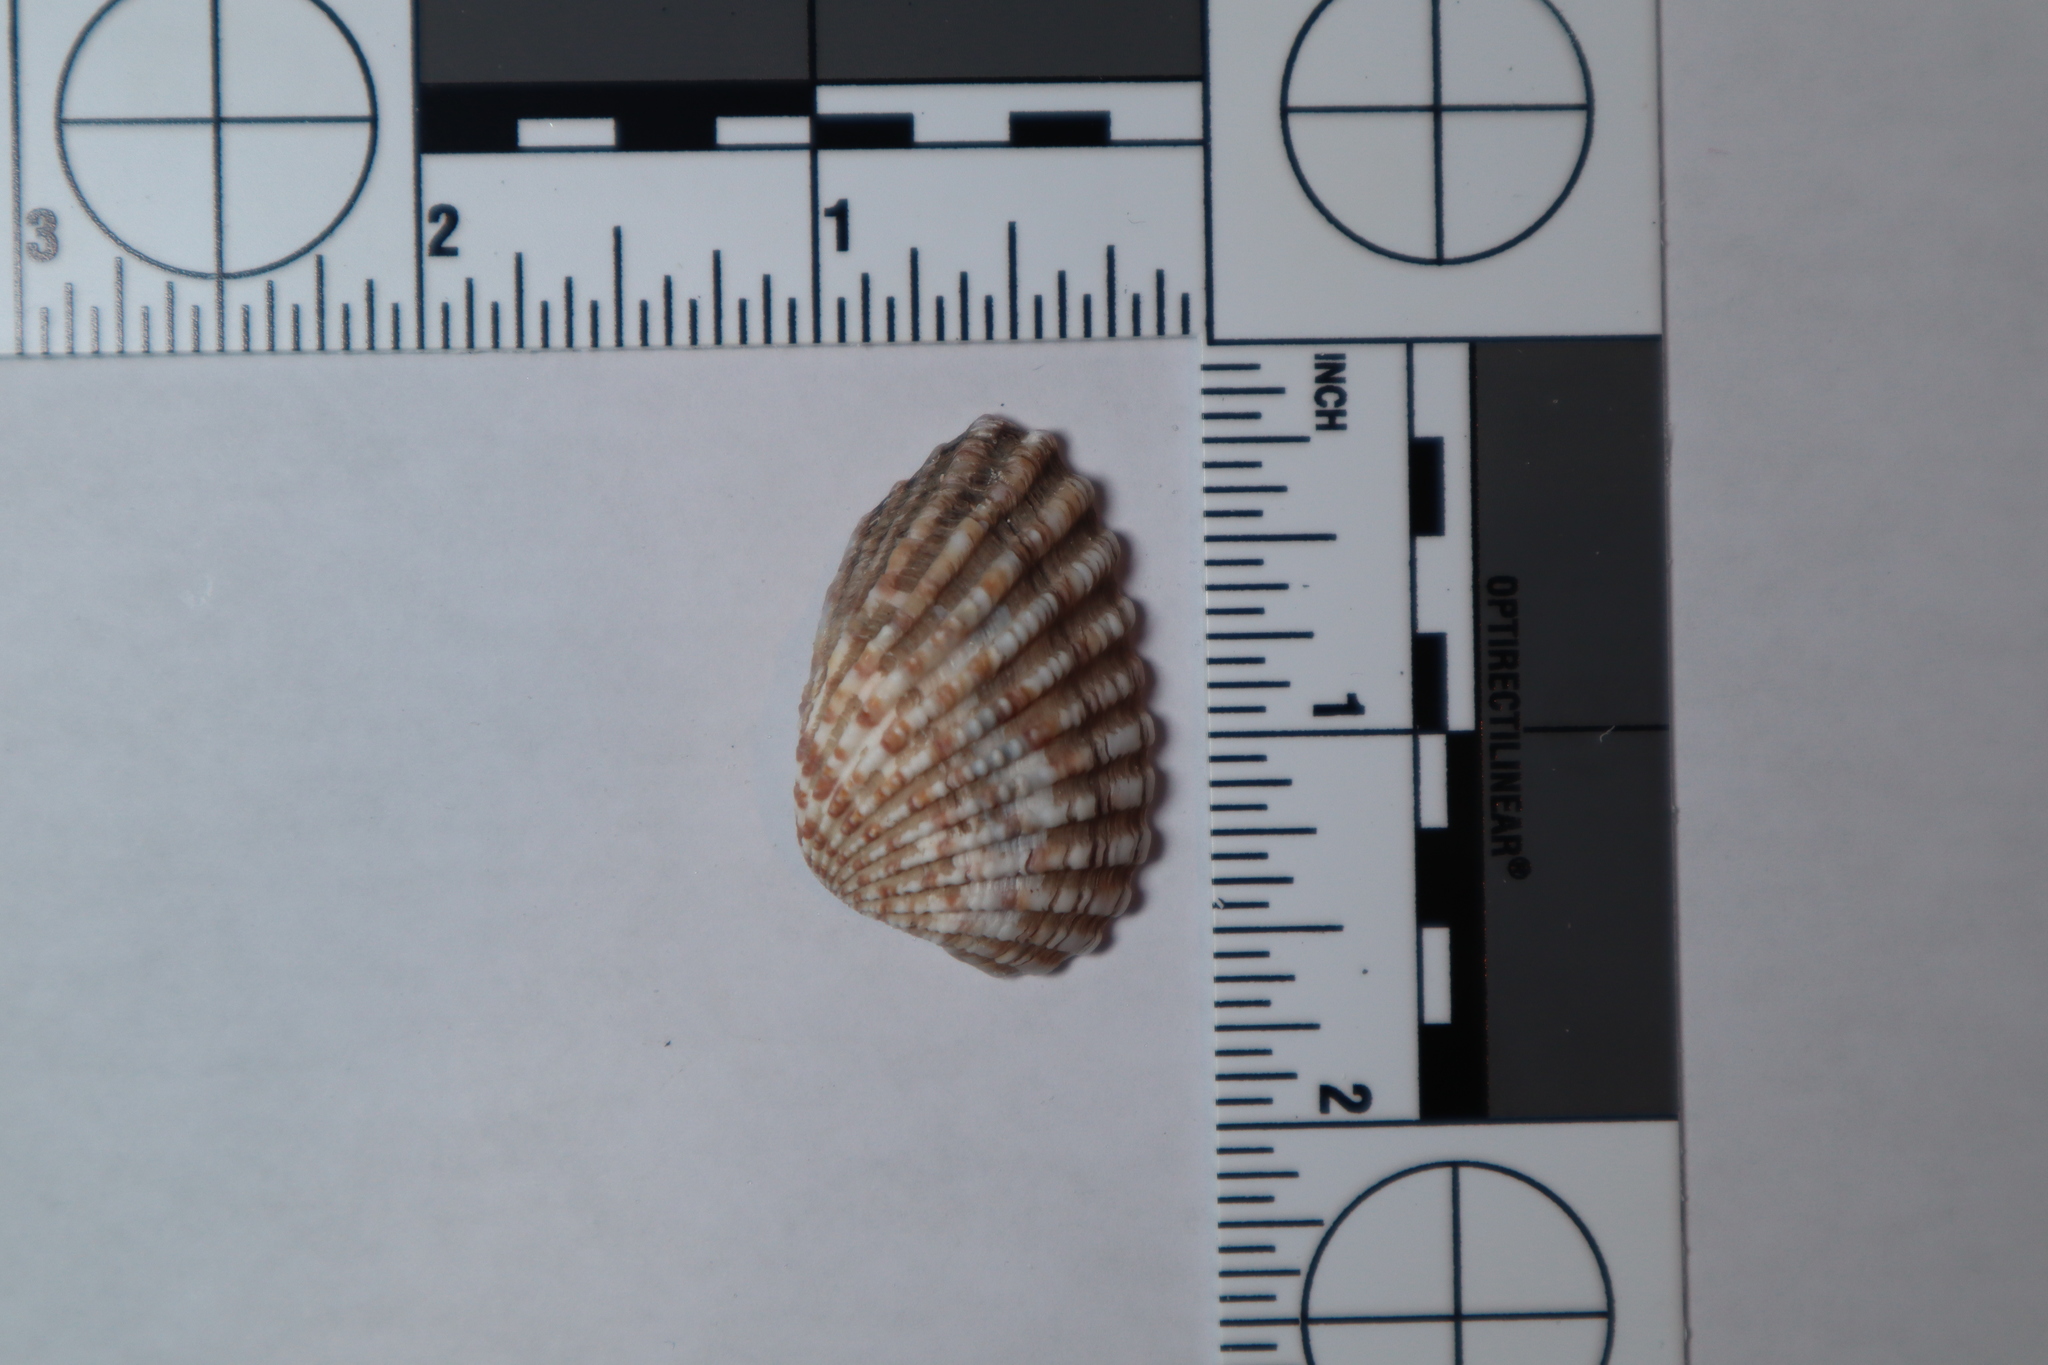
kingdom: Animalia
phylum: Mollusca
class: Bivalvia
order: Carditida
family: Carditidae
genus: Cardites
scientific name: Cardites floridanus
